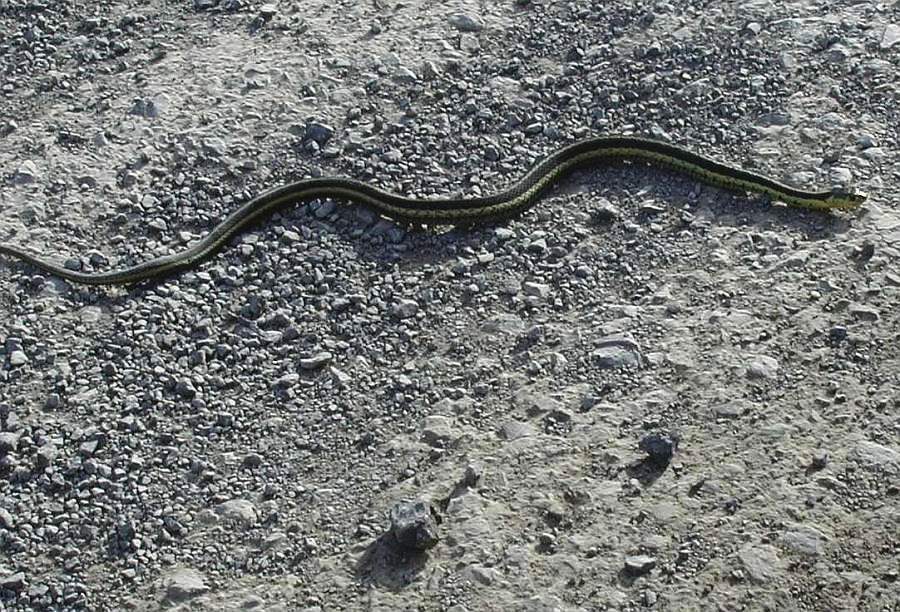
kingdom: Animalia
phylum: Chordata
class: Squamata
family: Colubridae
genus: Thamnophis
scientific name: Thamnophis sirtalis
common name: Common garter snake
